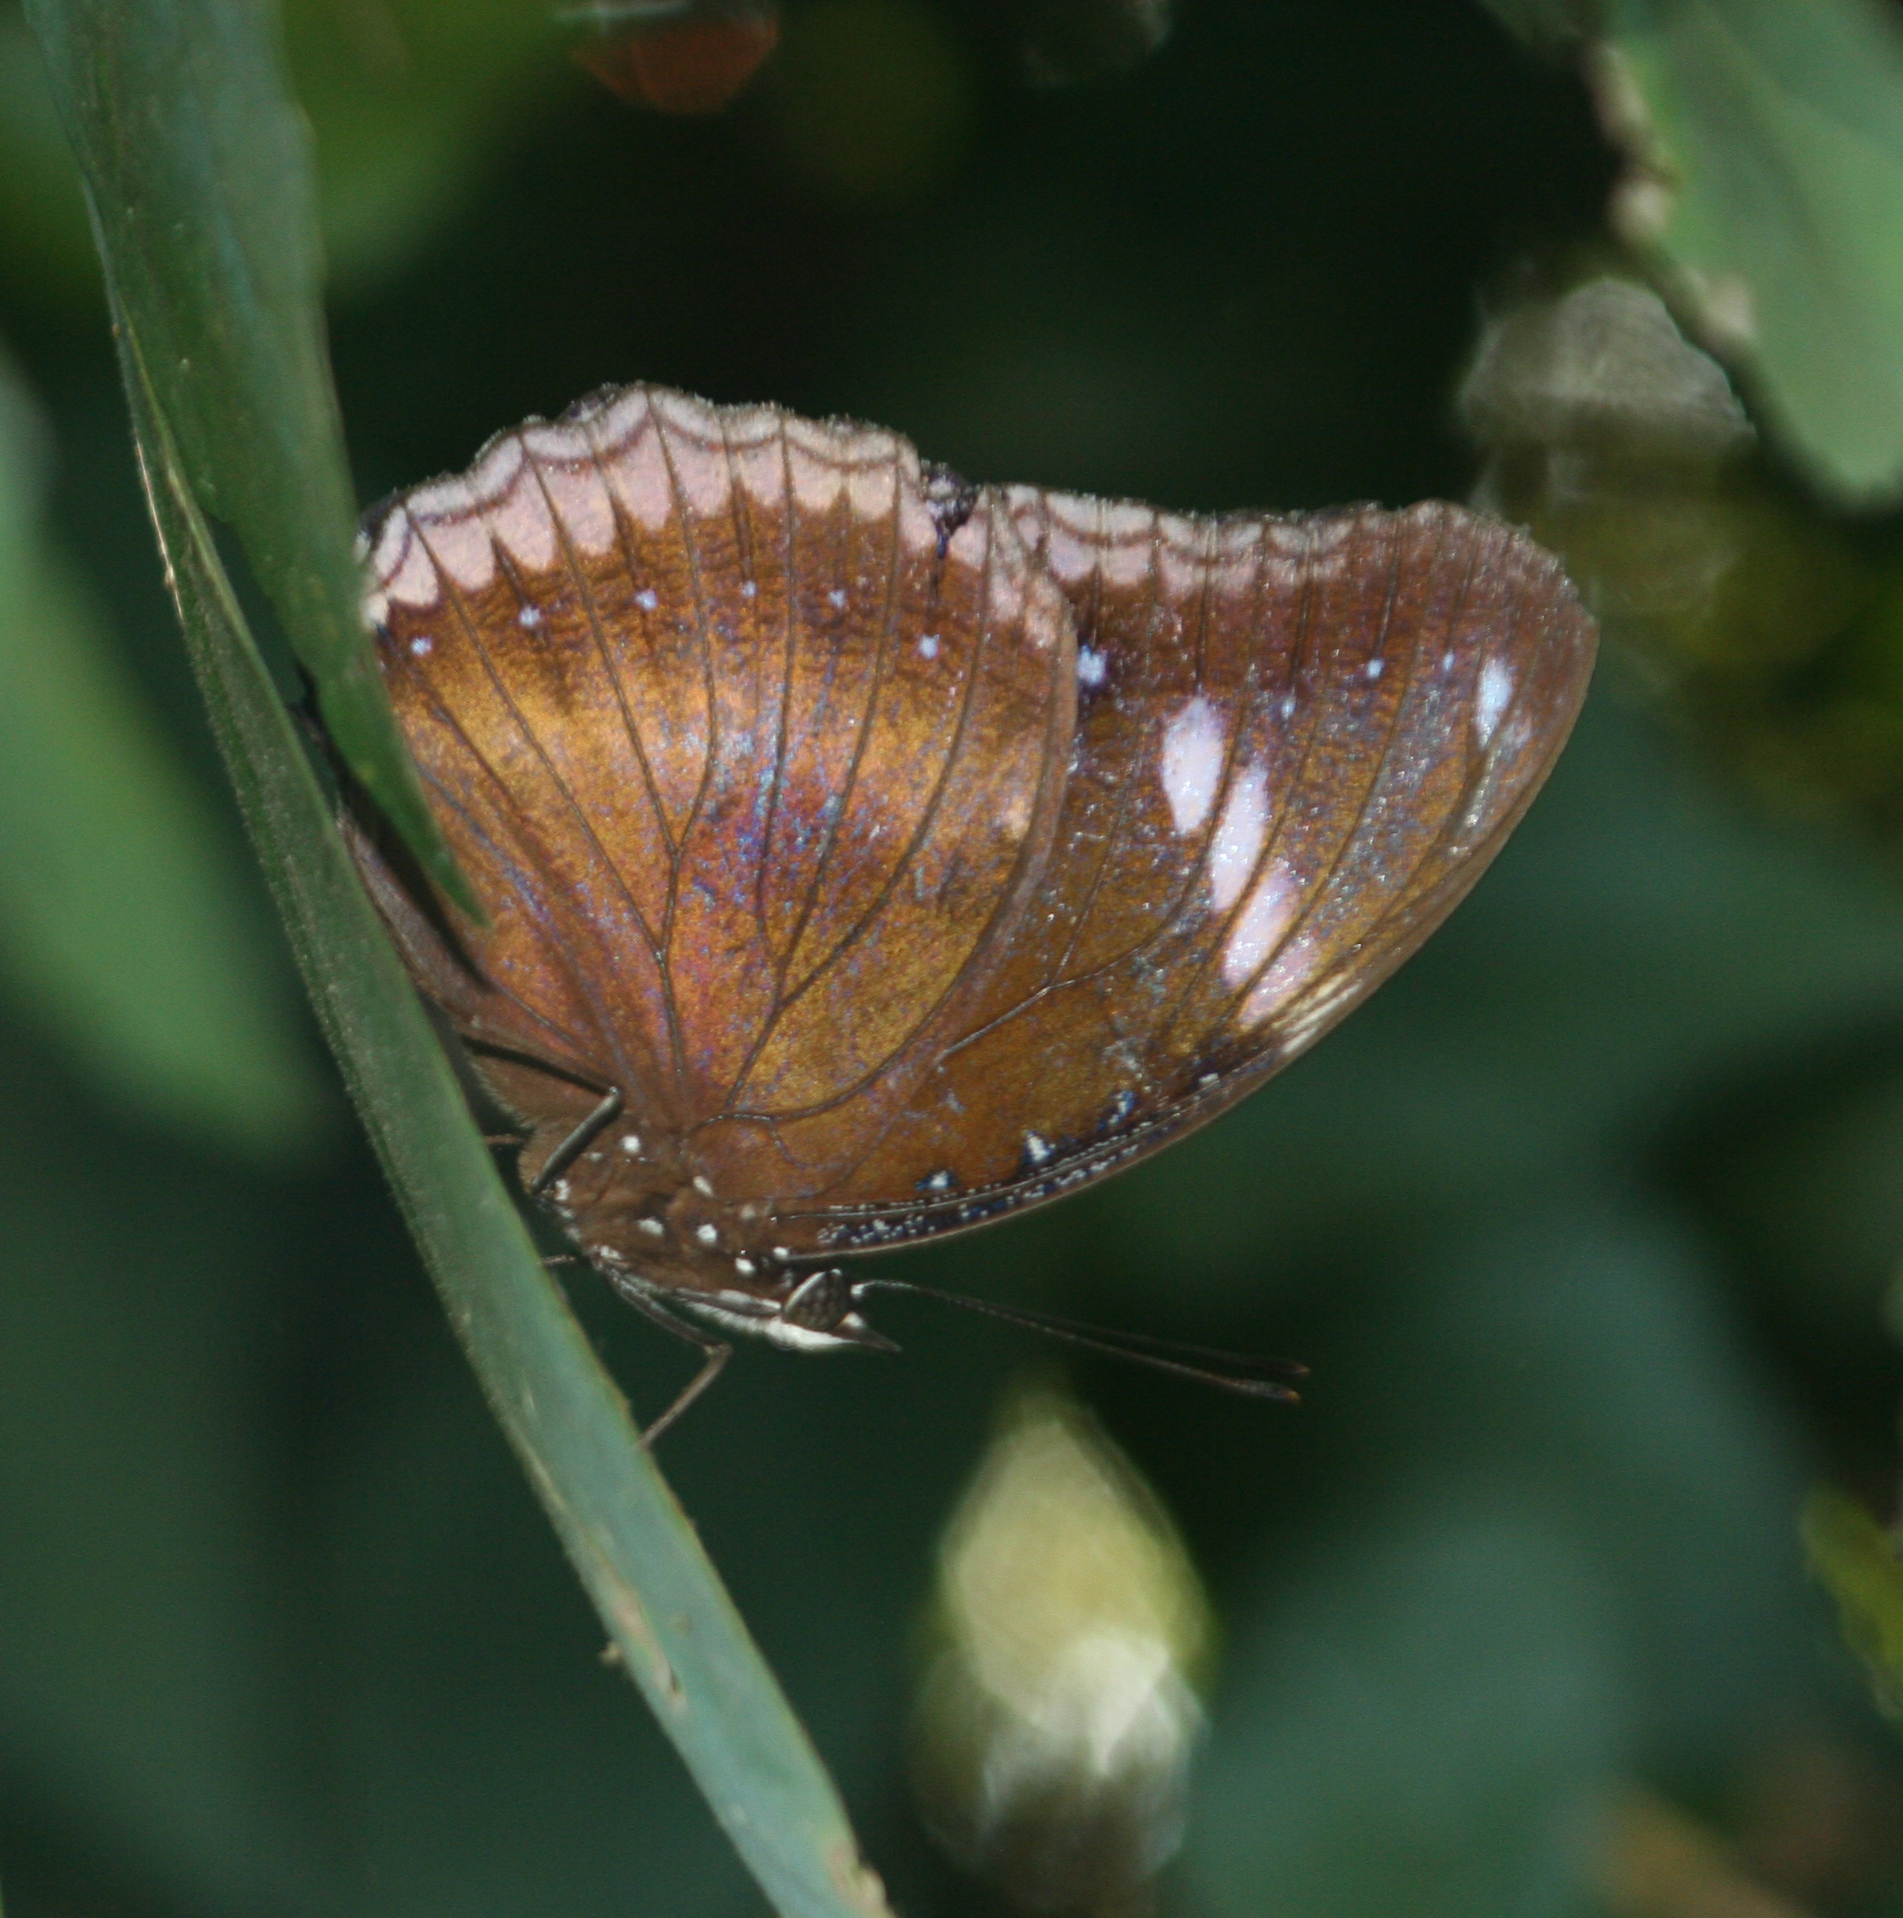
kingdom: Animalia
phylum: Arthropoda
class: Insecta
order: Lepidoptera
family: Nymphalidae
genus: Hypolimnas
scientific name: Hypolimnas bolina
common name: Great eggfly
